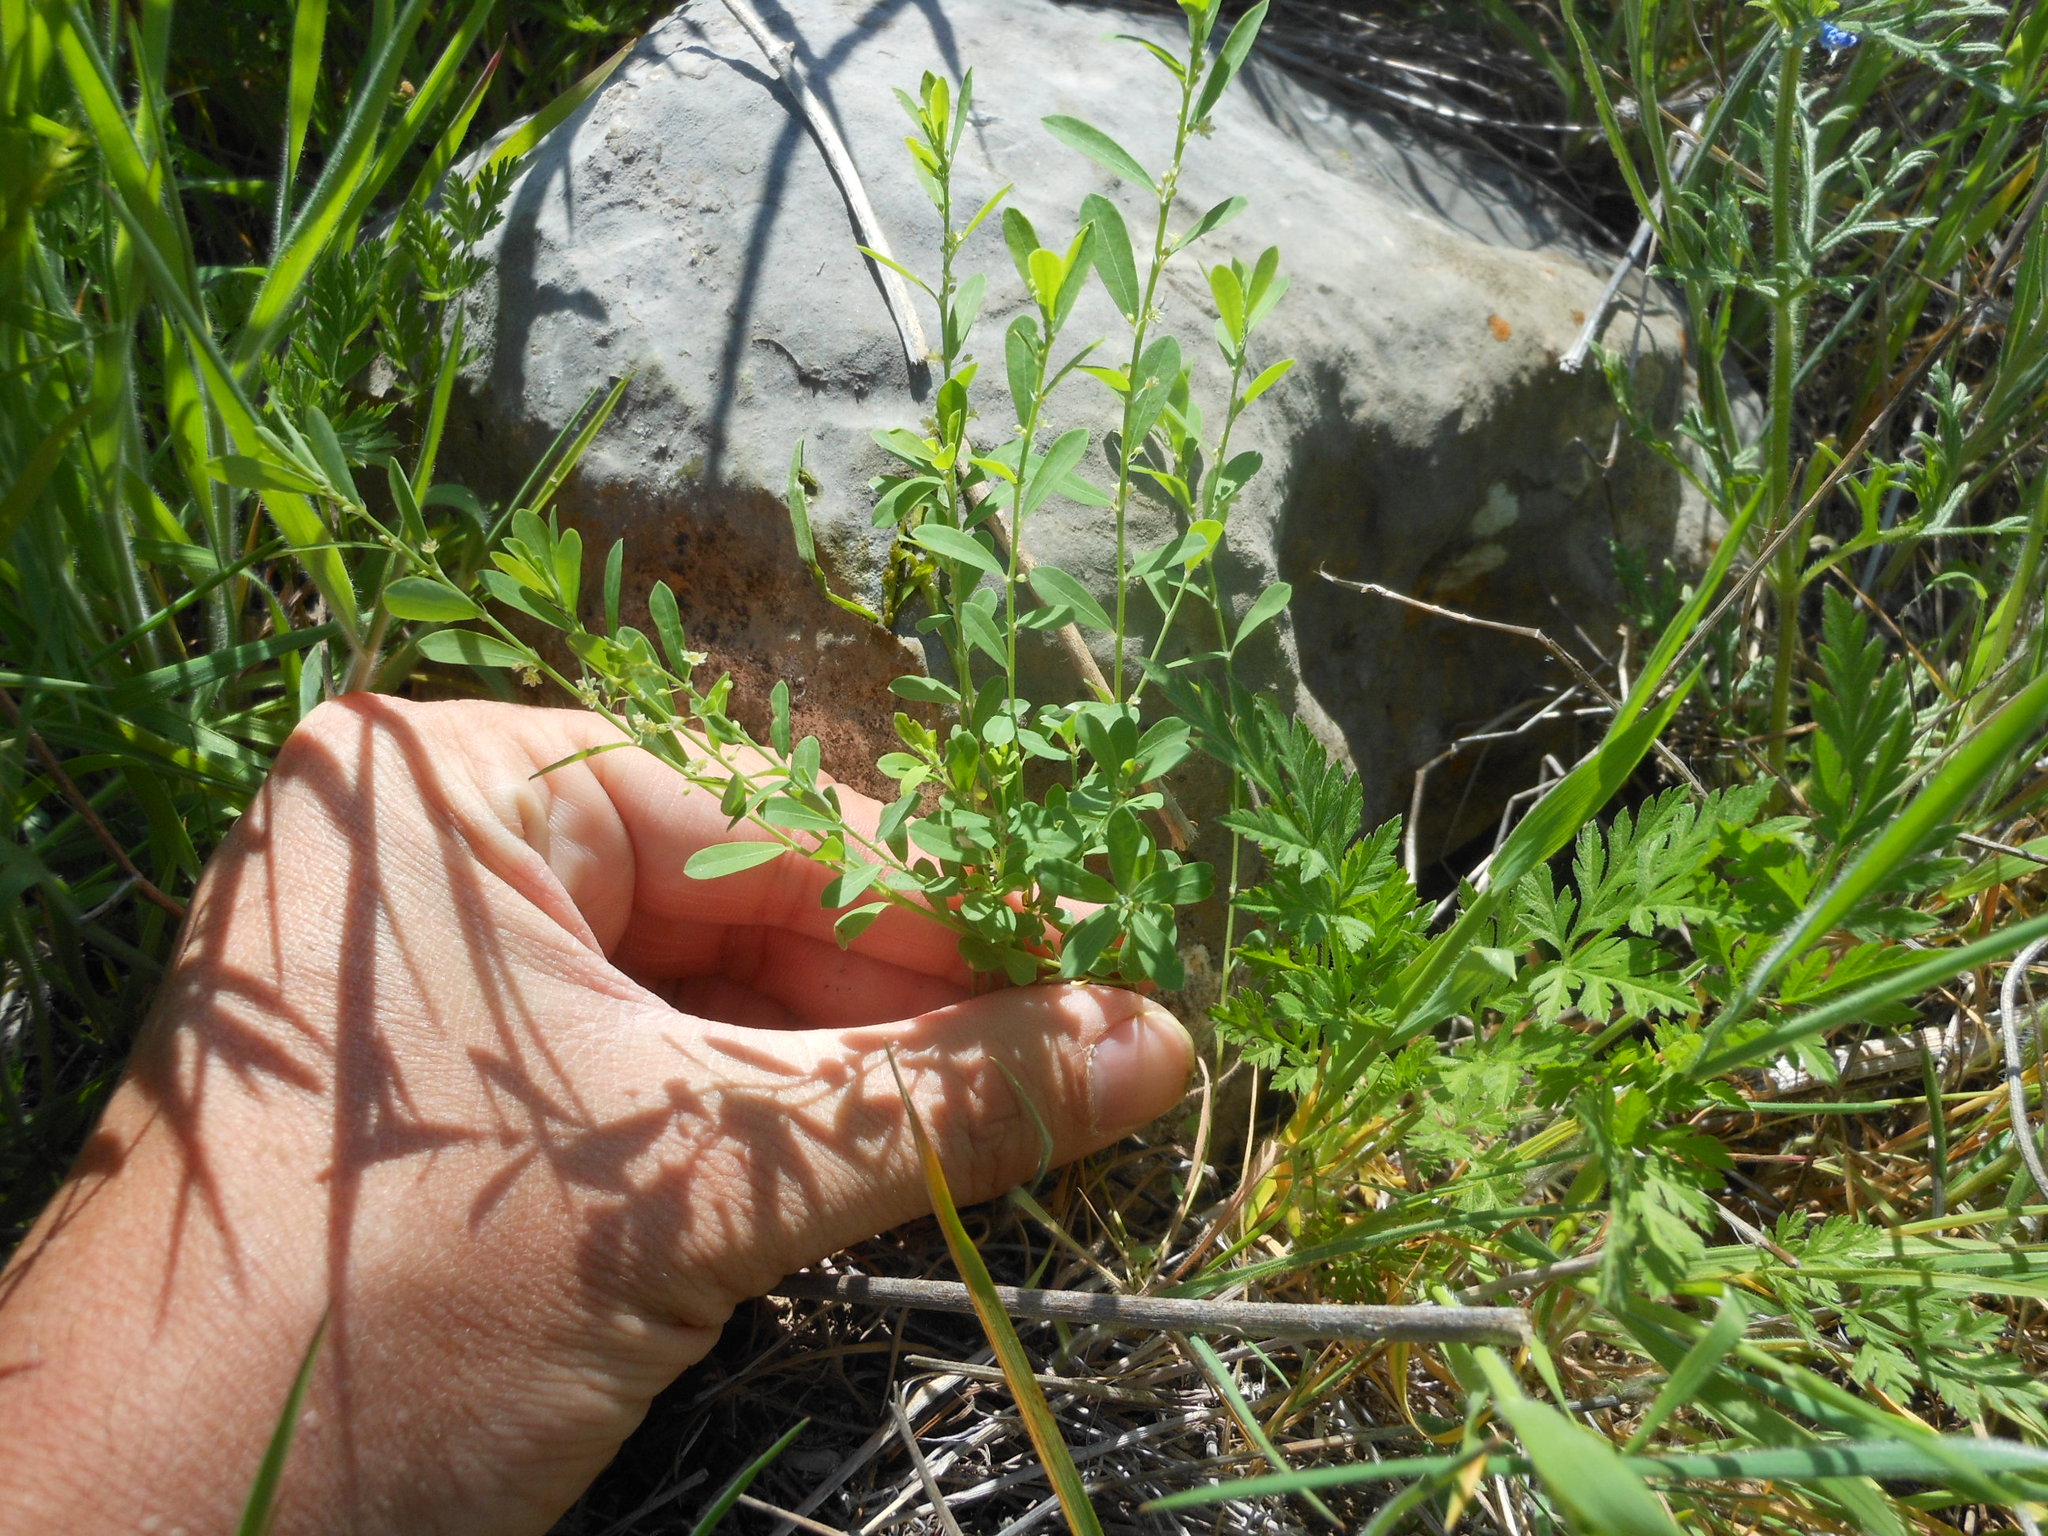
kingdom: Plantae
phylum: Tracheophyta
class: Magnoliopsida
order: Malpighiales
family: Phyllanthaceae
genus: Phyllanthus
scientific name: Phyllanthus polygonoides
